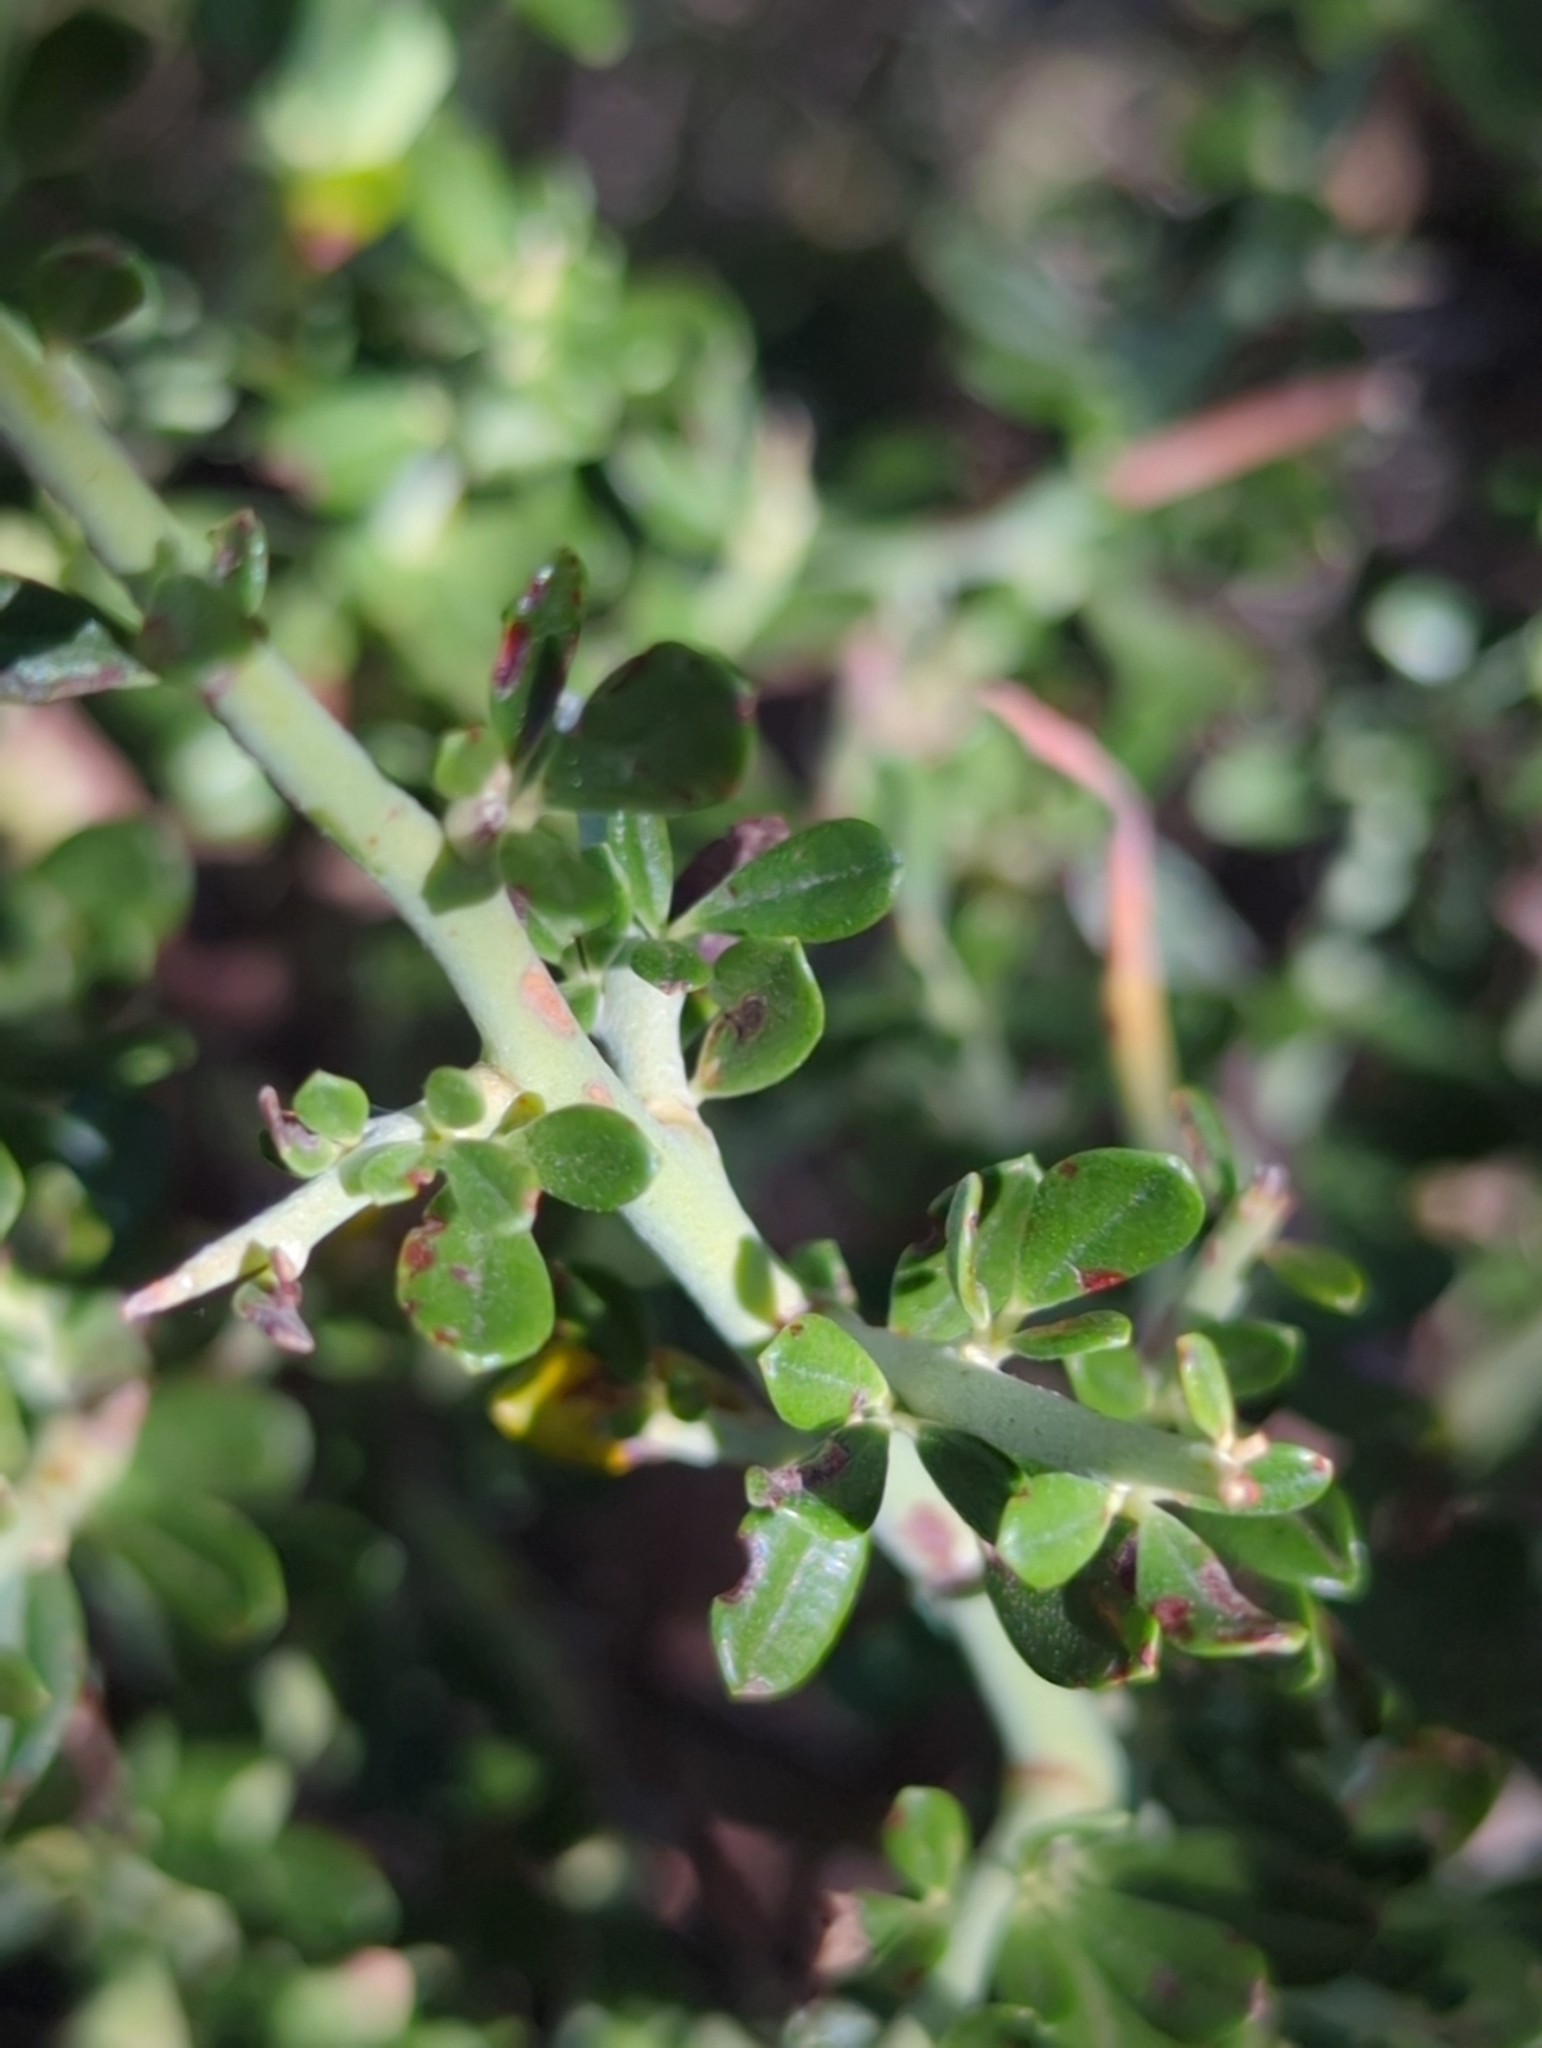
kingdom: Plantae
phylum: Tracheophyta
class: Magnoliopsida
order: Fabales
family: Fabaceae
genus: Pickeringia
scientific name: Pickeringia montana
